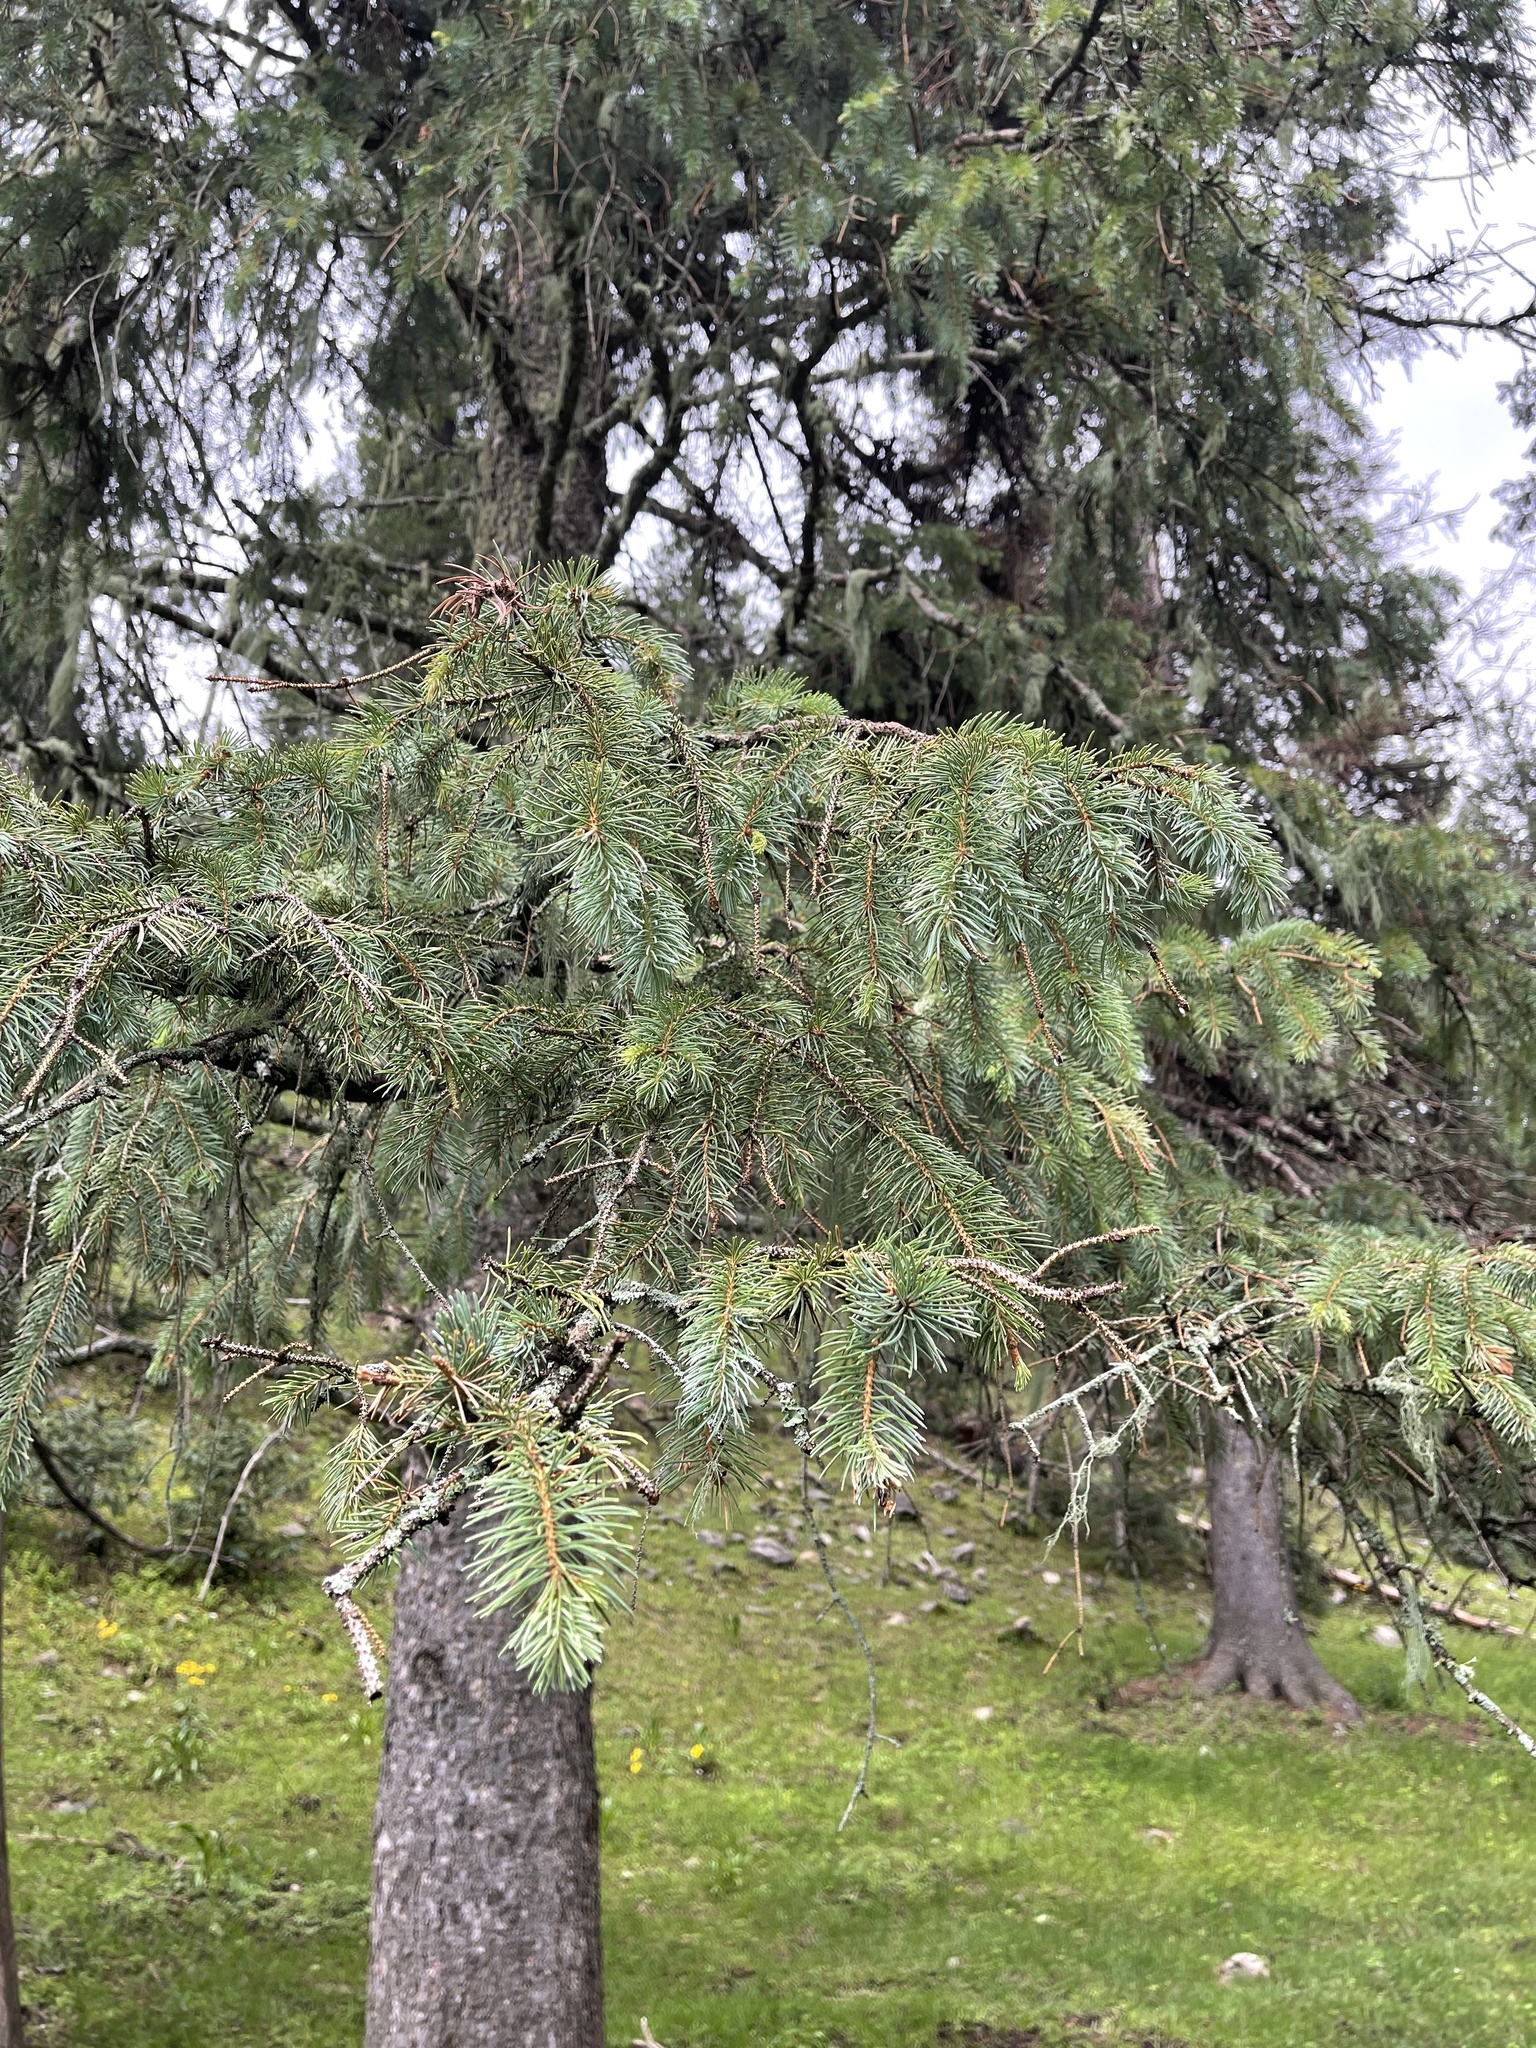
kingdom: Plantae
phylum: Tracheophyta
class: Pinopsida
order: Pinales
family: Pinaceae
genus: Picea
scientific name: Picea engelmannii
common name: Engelmann spruce
